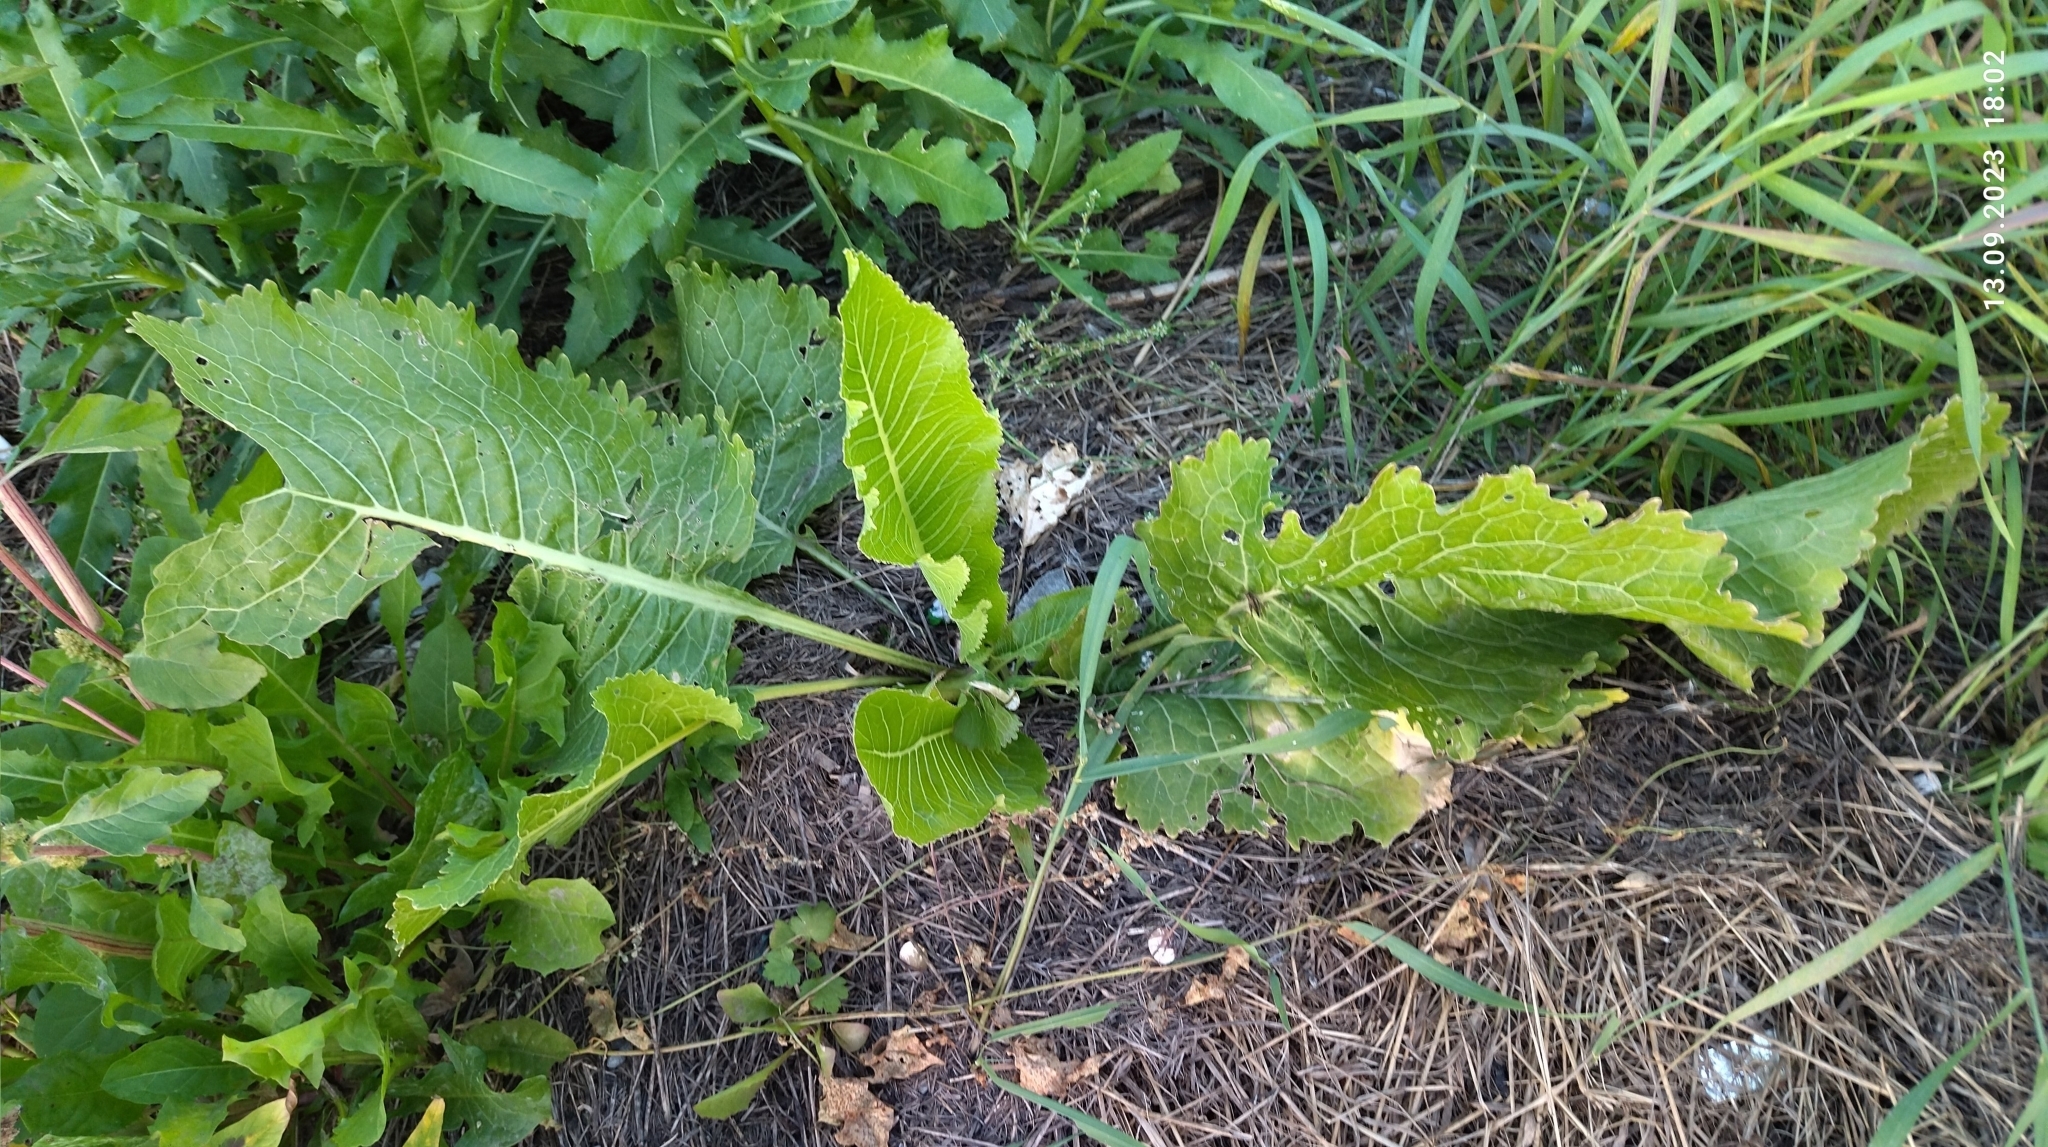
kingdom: Plantae
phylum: Tracheophyta
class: Magnoliopsida
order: Brassicales
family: Brassicaceae
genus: Armoracia
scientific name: Armoracia rusticana
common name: Horseradish
